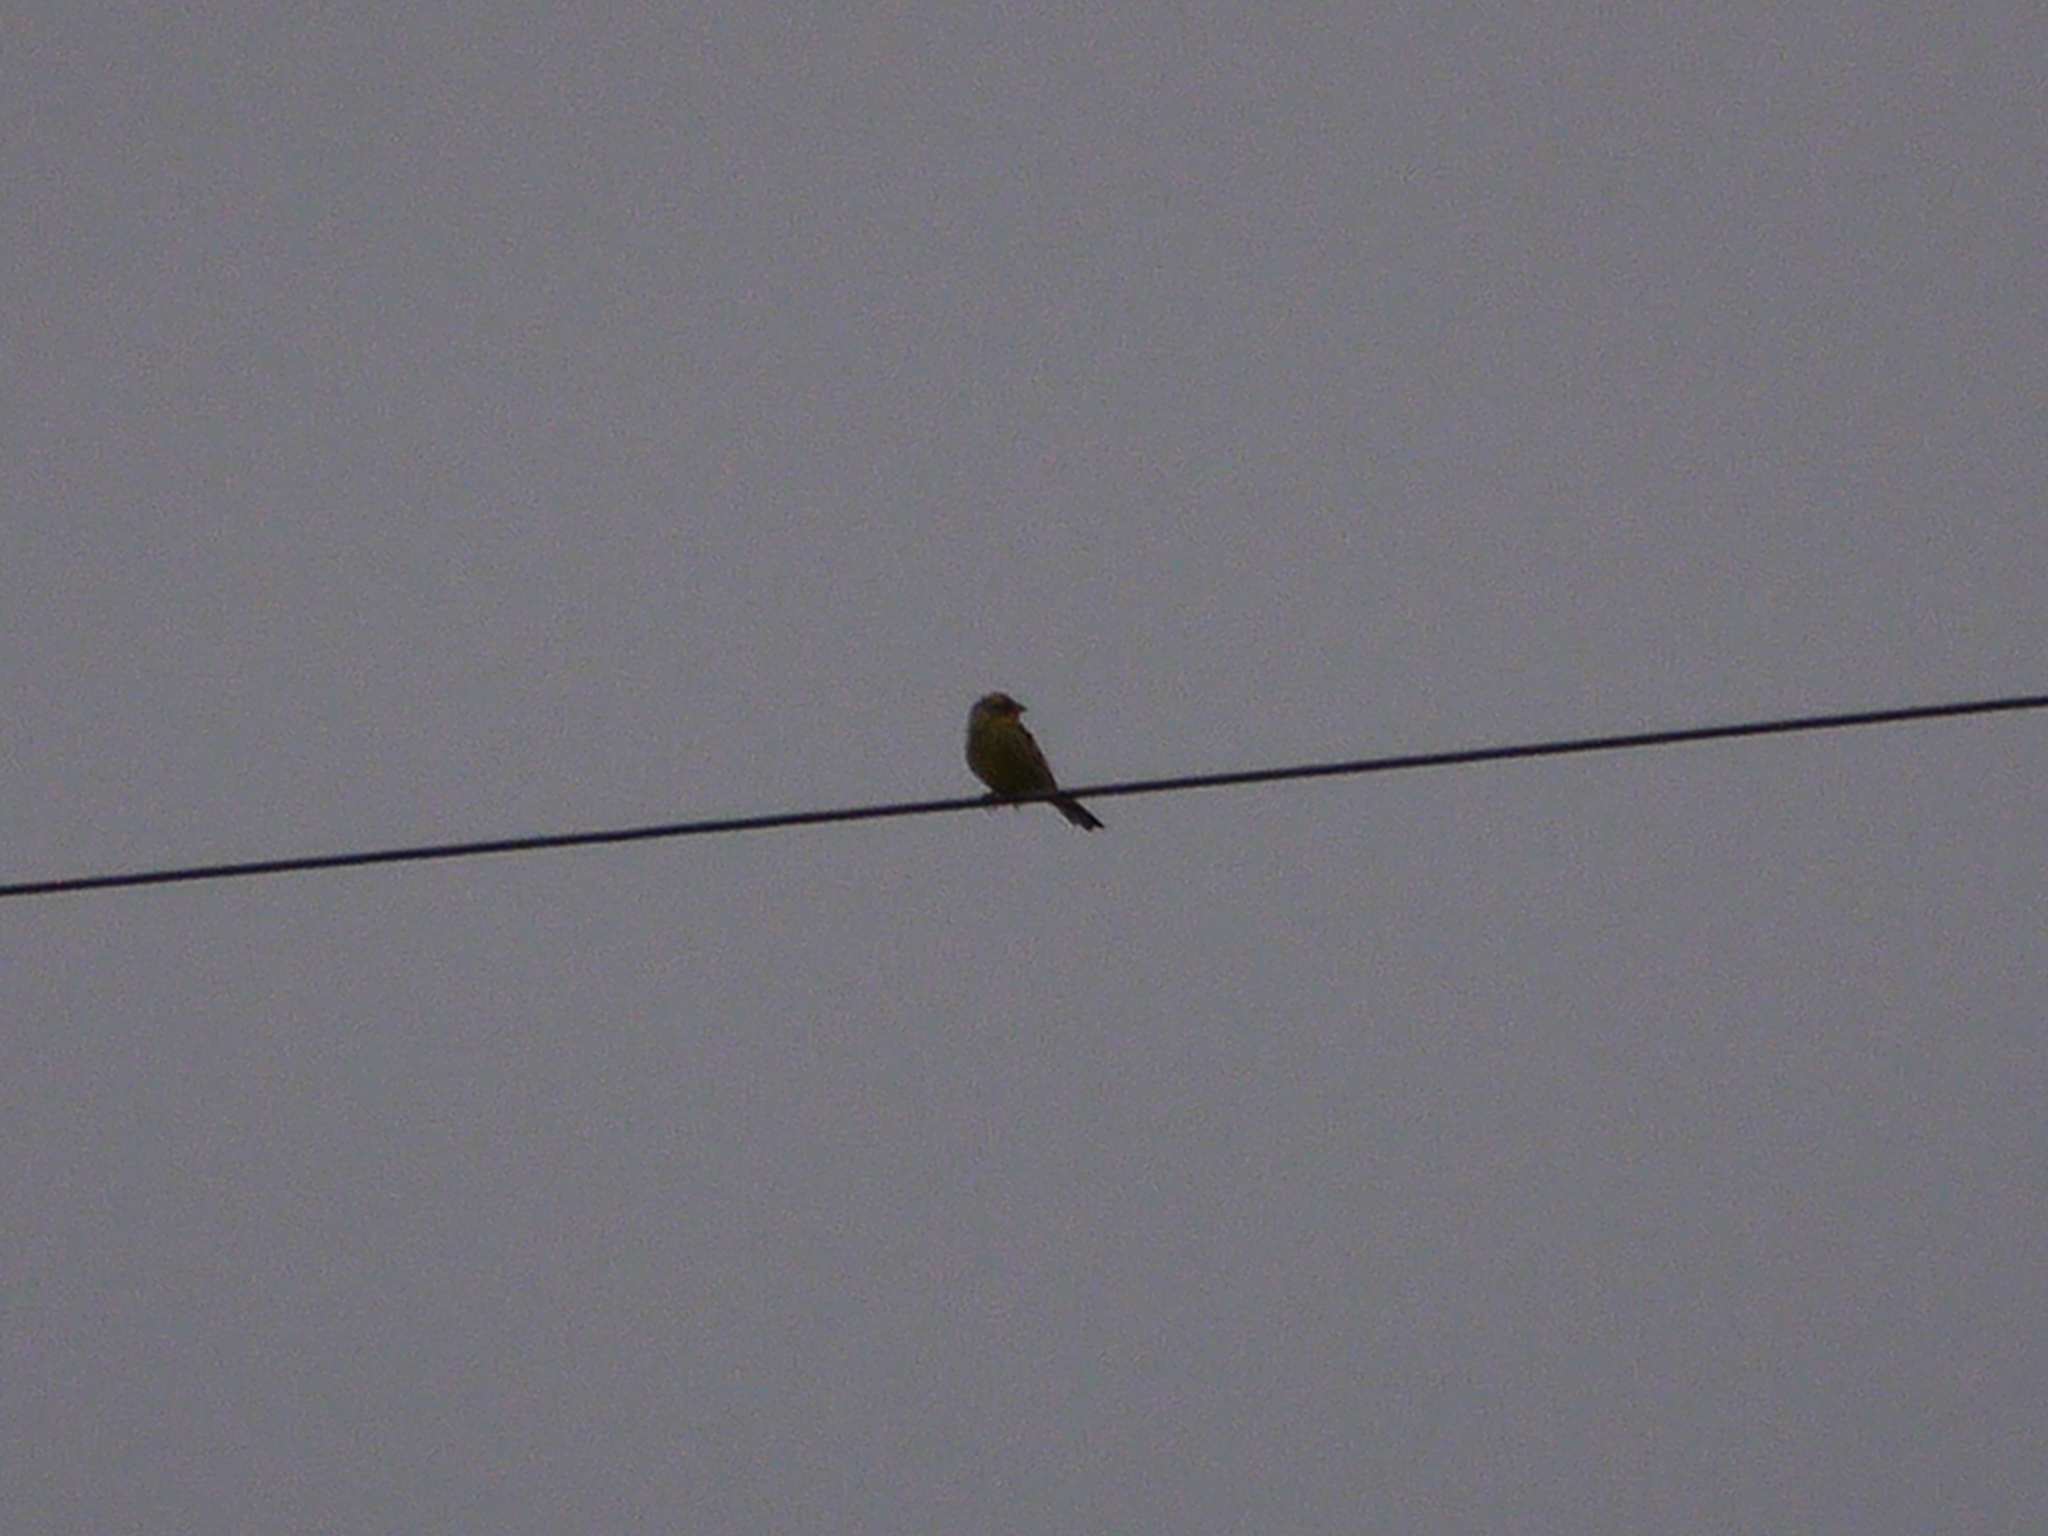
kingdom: Animalia
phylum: Chordata
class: Aves
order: Passeriformes
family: Emberizidae
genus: Emberiza
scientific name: Emberiza citrinella
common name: Yellowhammer
